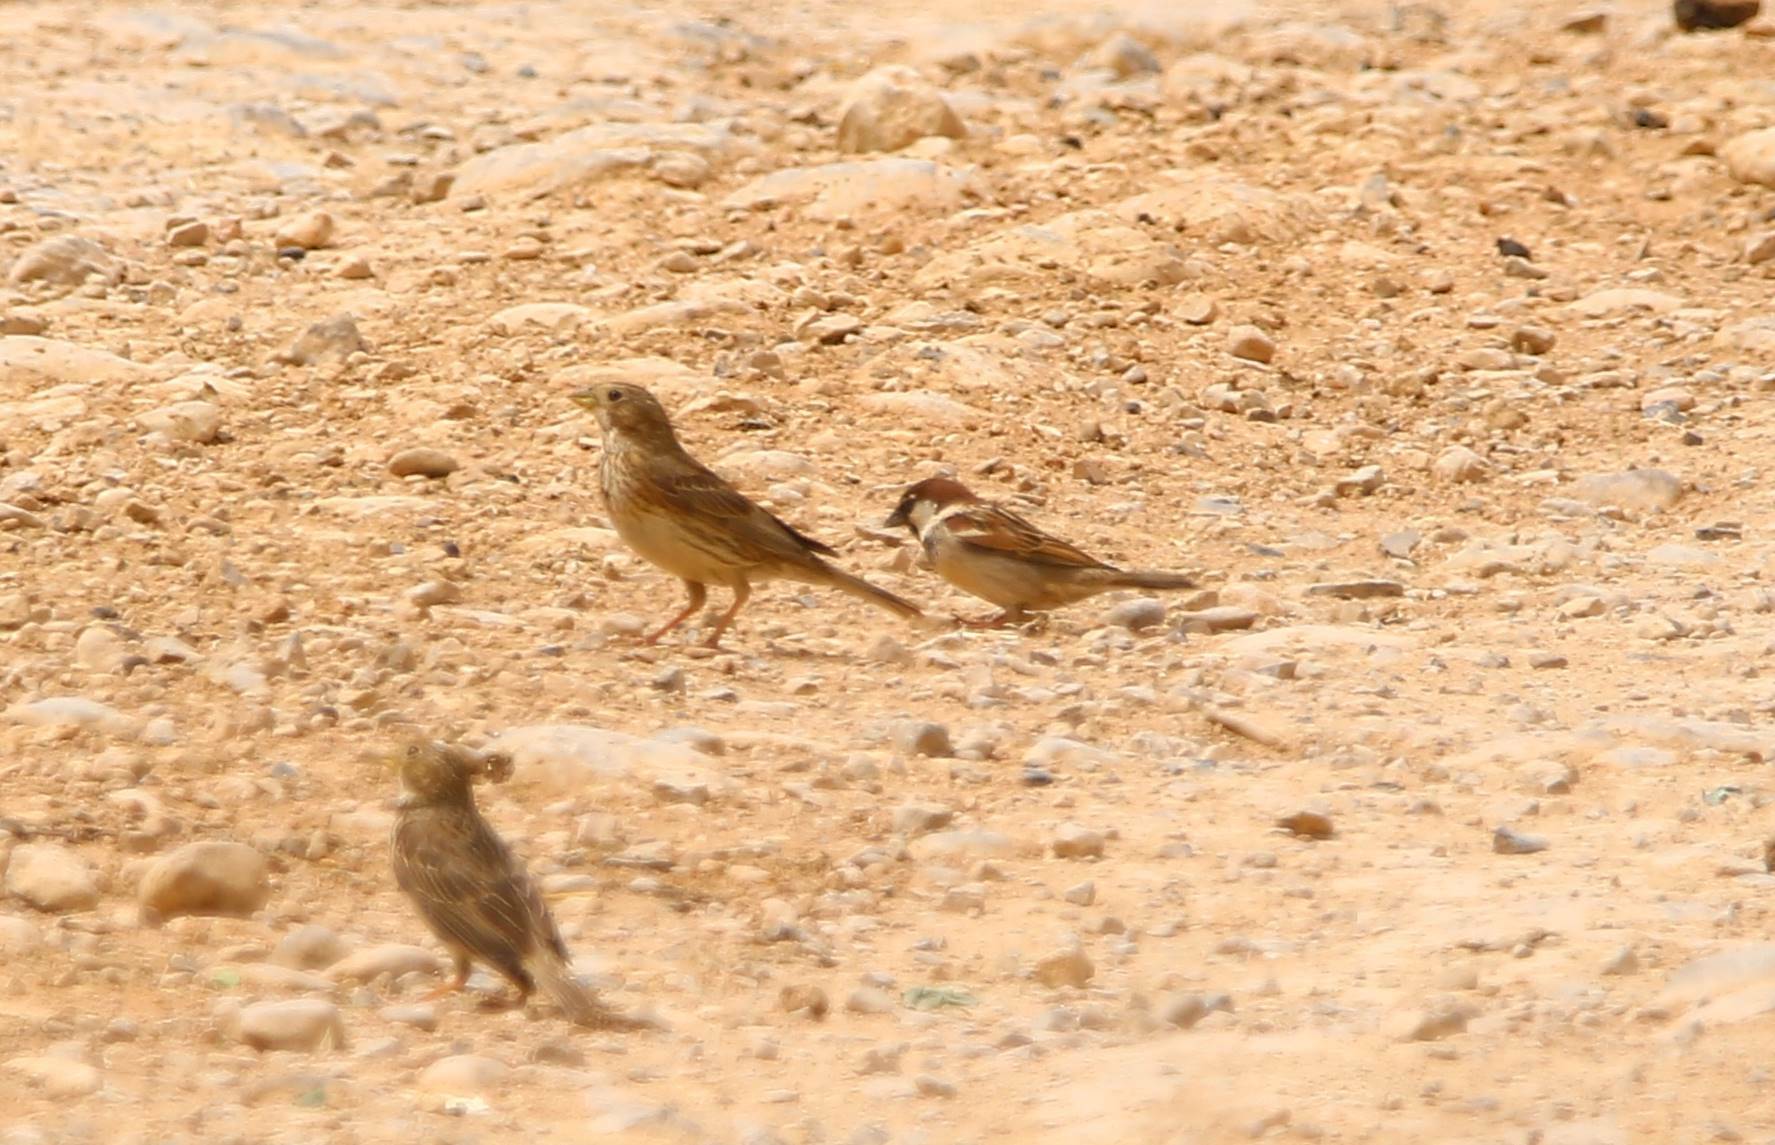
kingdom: Animalia
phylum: Chordata
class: Aves
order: Passeriformes
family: Passeridae
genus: Passer
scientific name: Passer hispaniolensis
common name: Spanish sparrow
